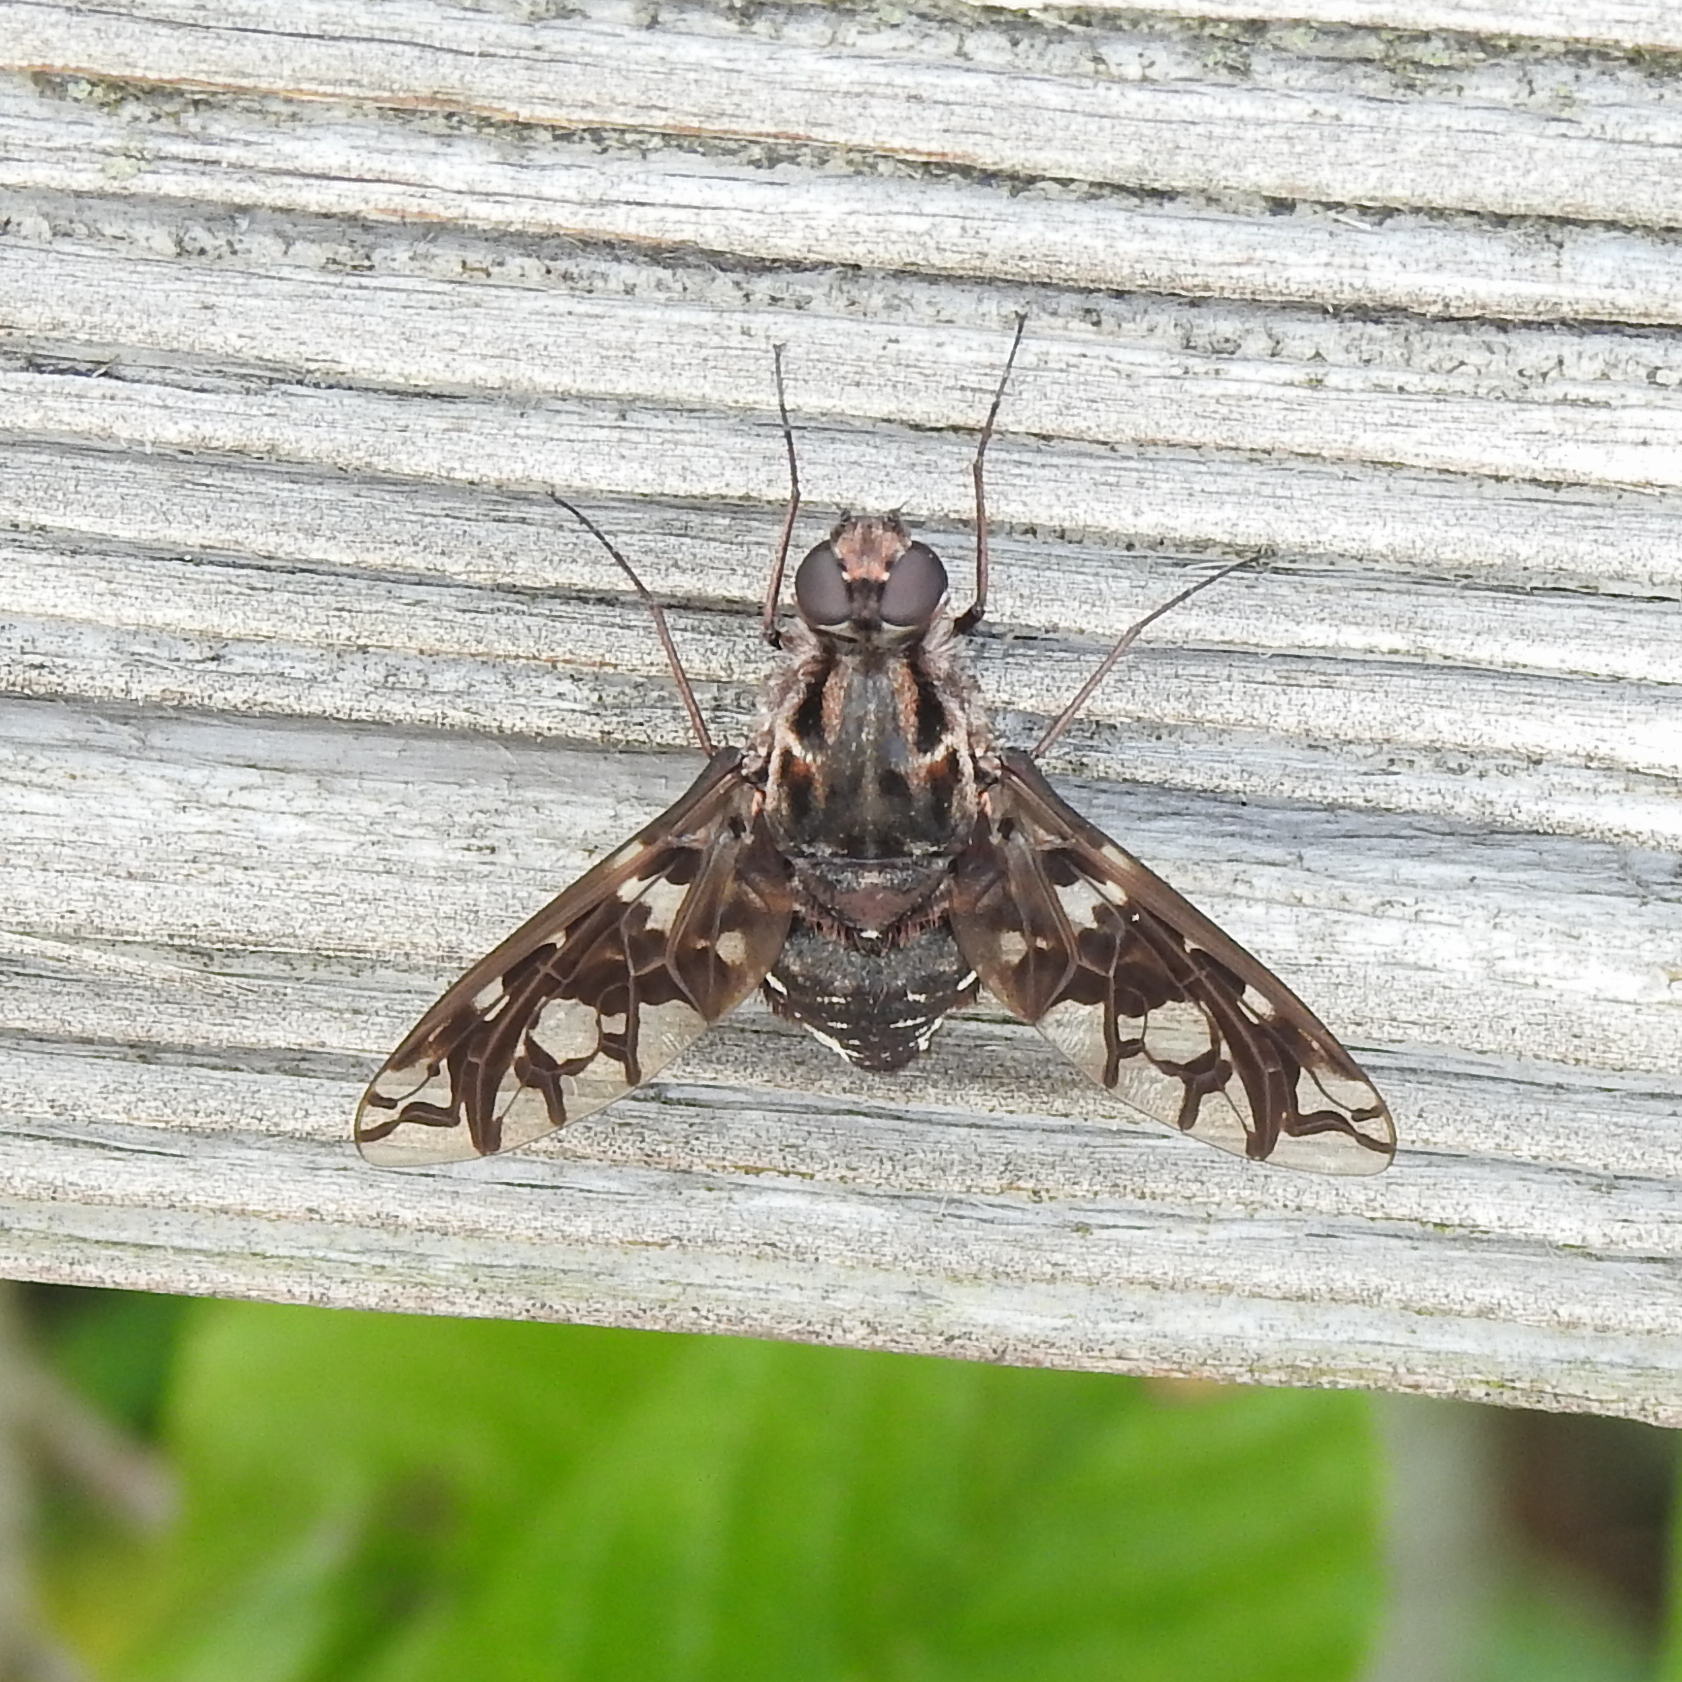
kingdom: Animalia
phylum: Arthropoda
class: Insecta
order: Diptera
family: Bombyliidae
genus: Xenox
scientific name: Xenox tigrinus
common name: Tiger bee fly
